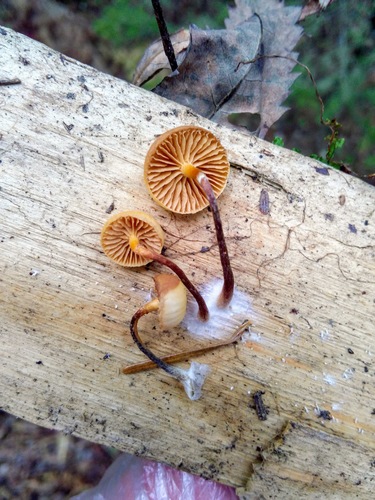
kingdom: Fungi
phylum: Basidiomycota
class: Agaricomycetes
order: Agaricales
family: Hymenogastraceae
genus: Galerina
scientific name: Galerina marginata
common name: Funeral bell
